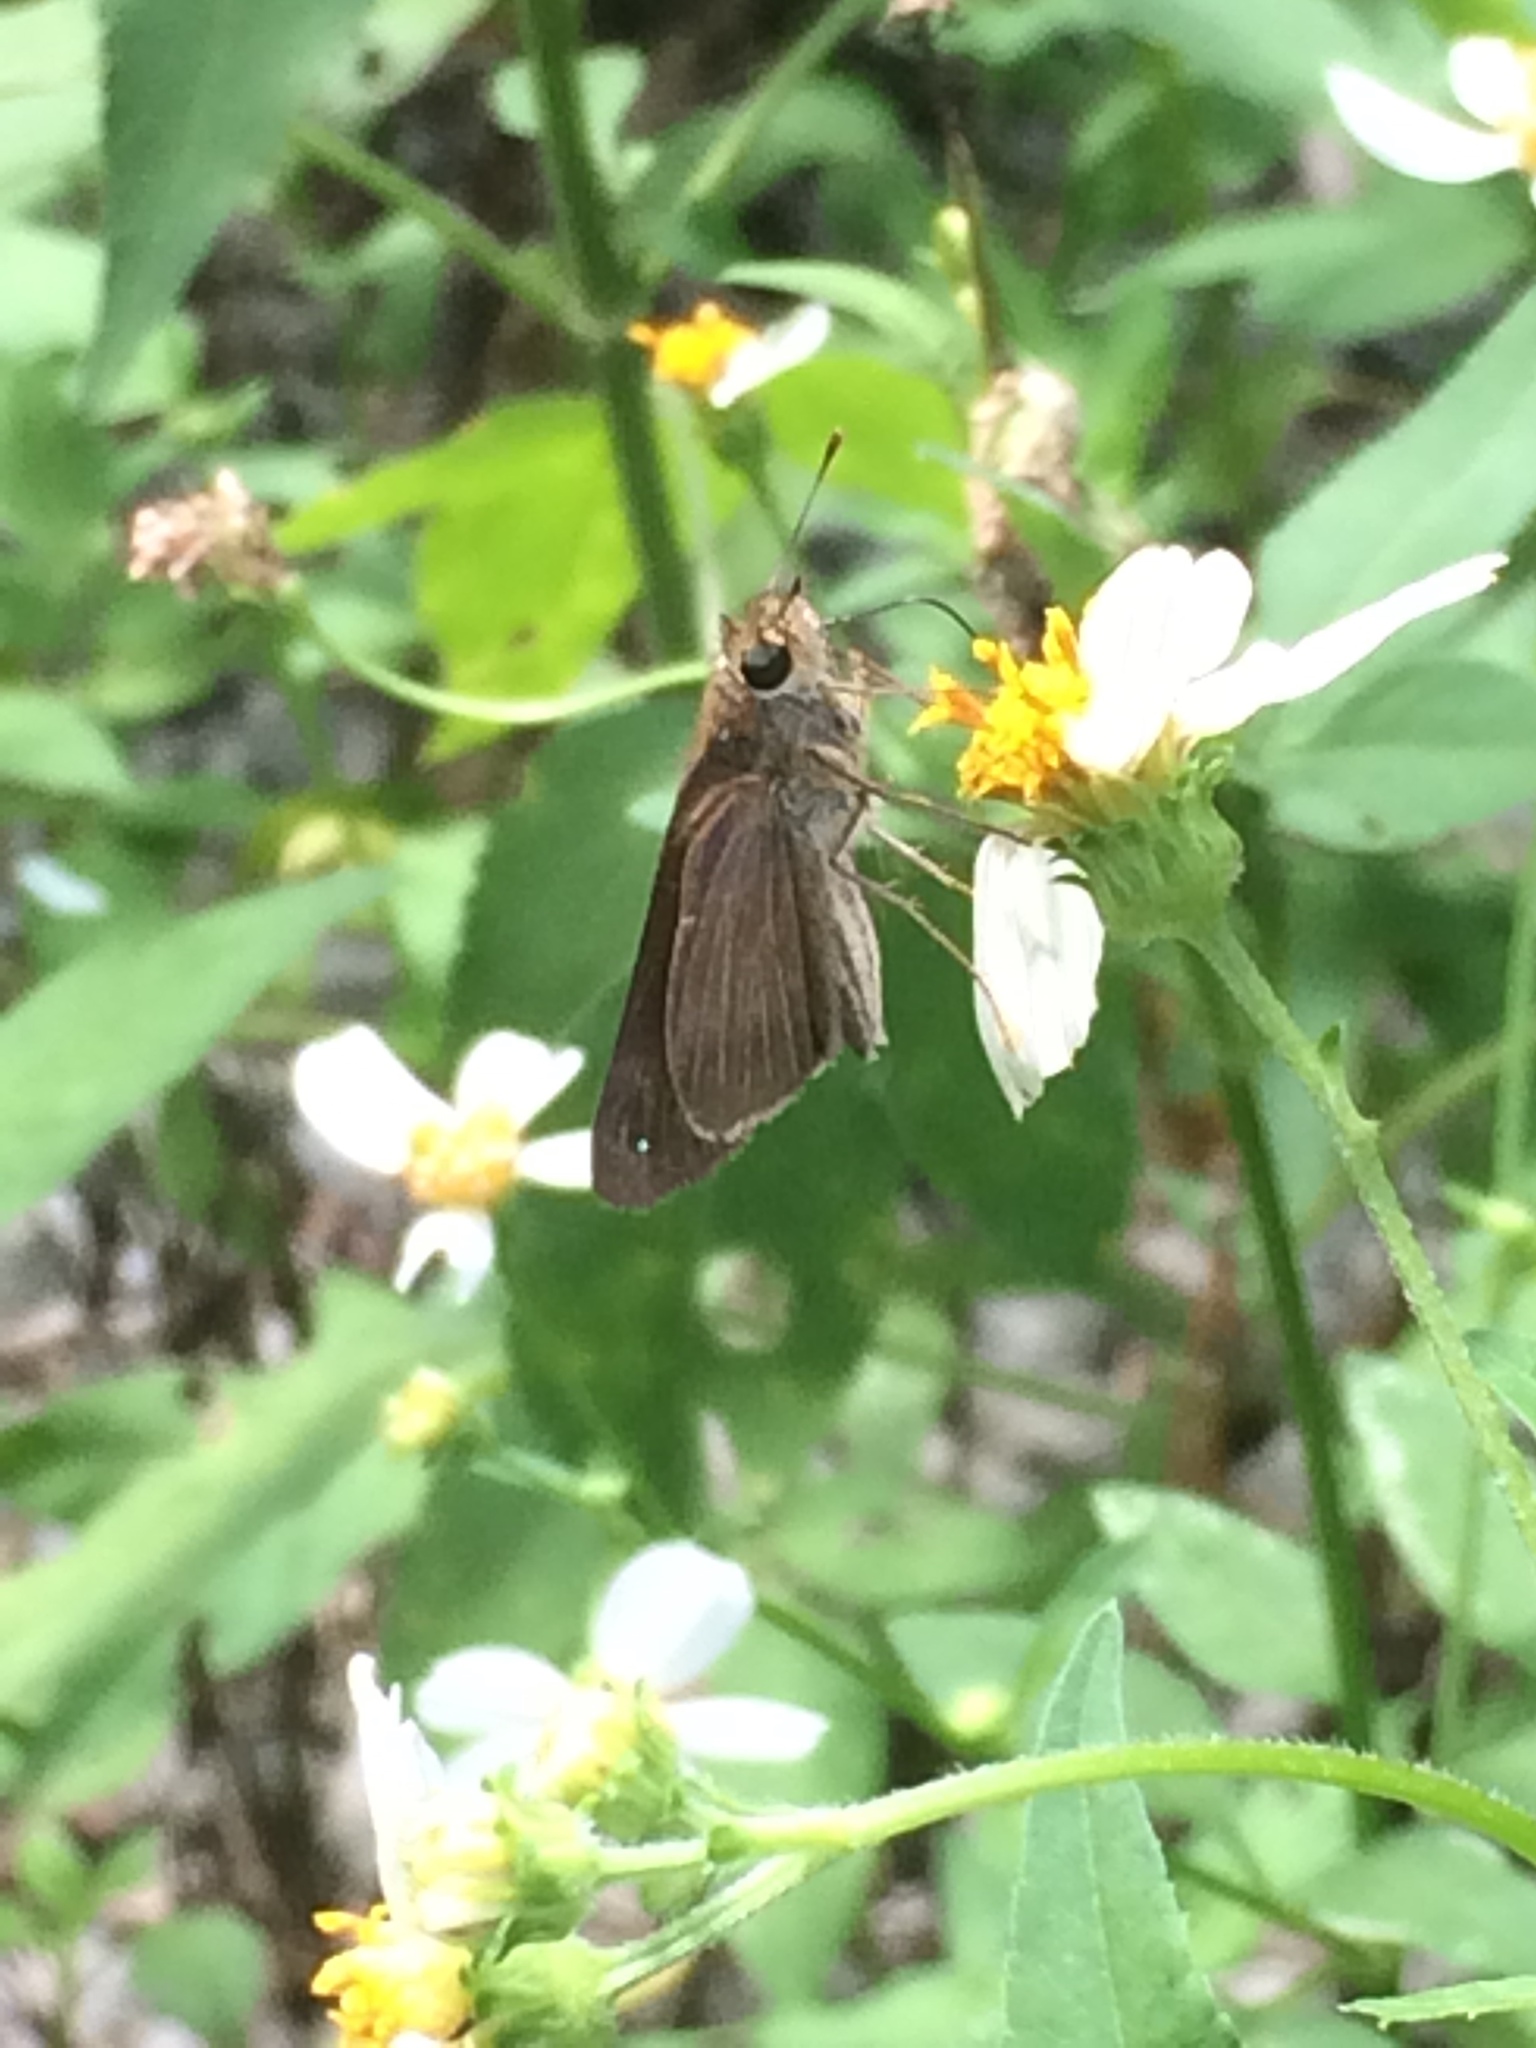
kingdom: Animalia
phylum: Arthropoda
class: Insecta
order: Lepidoptera
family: Hesperiidae
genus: Panoquina
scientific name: Panoquina ocola
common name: Ocola skipper
